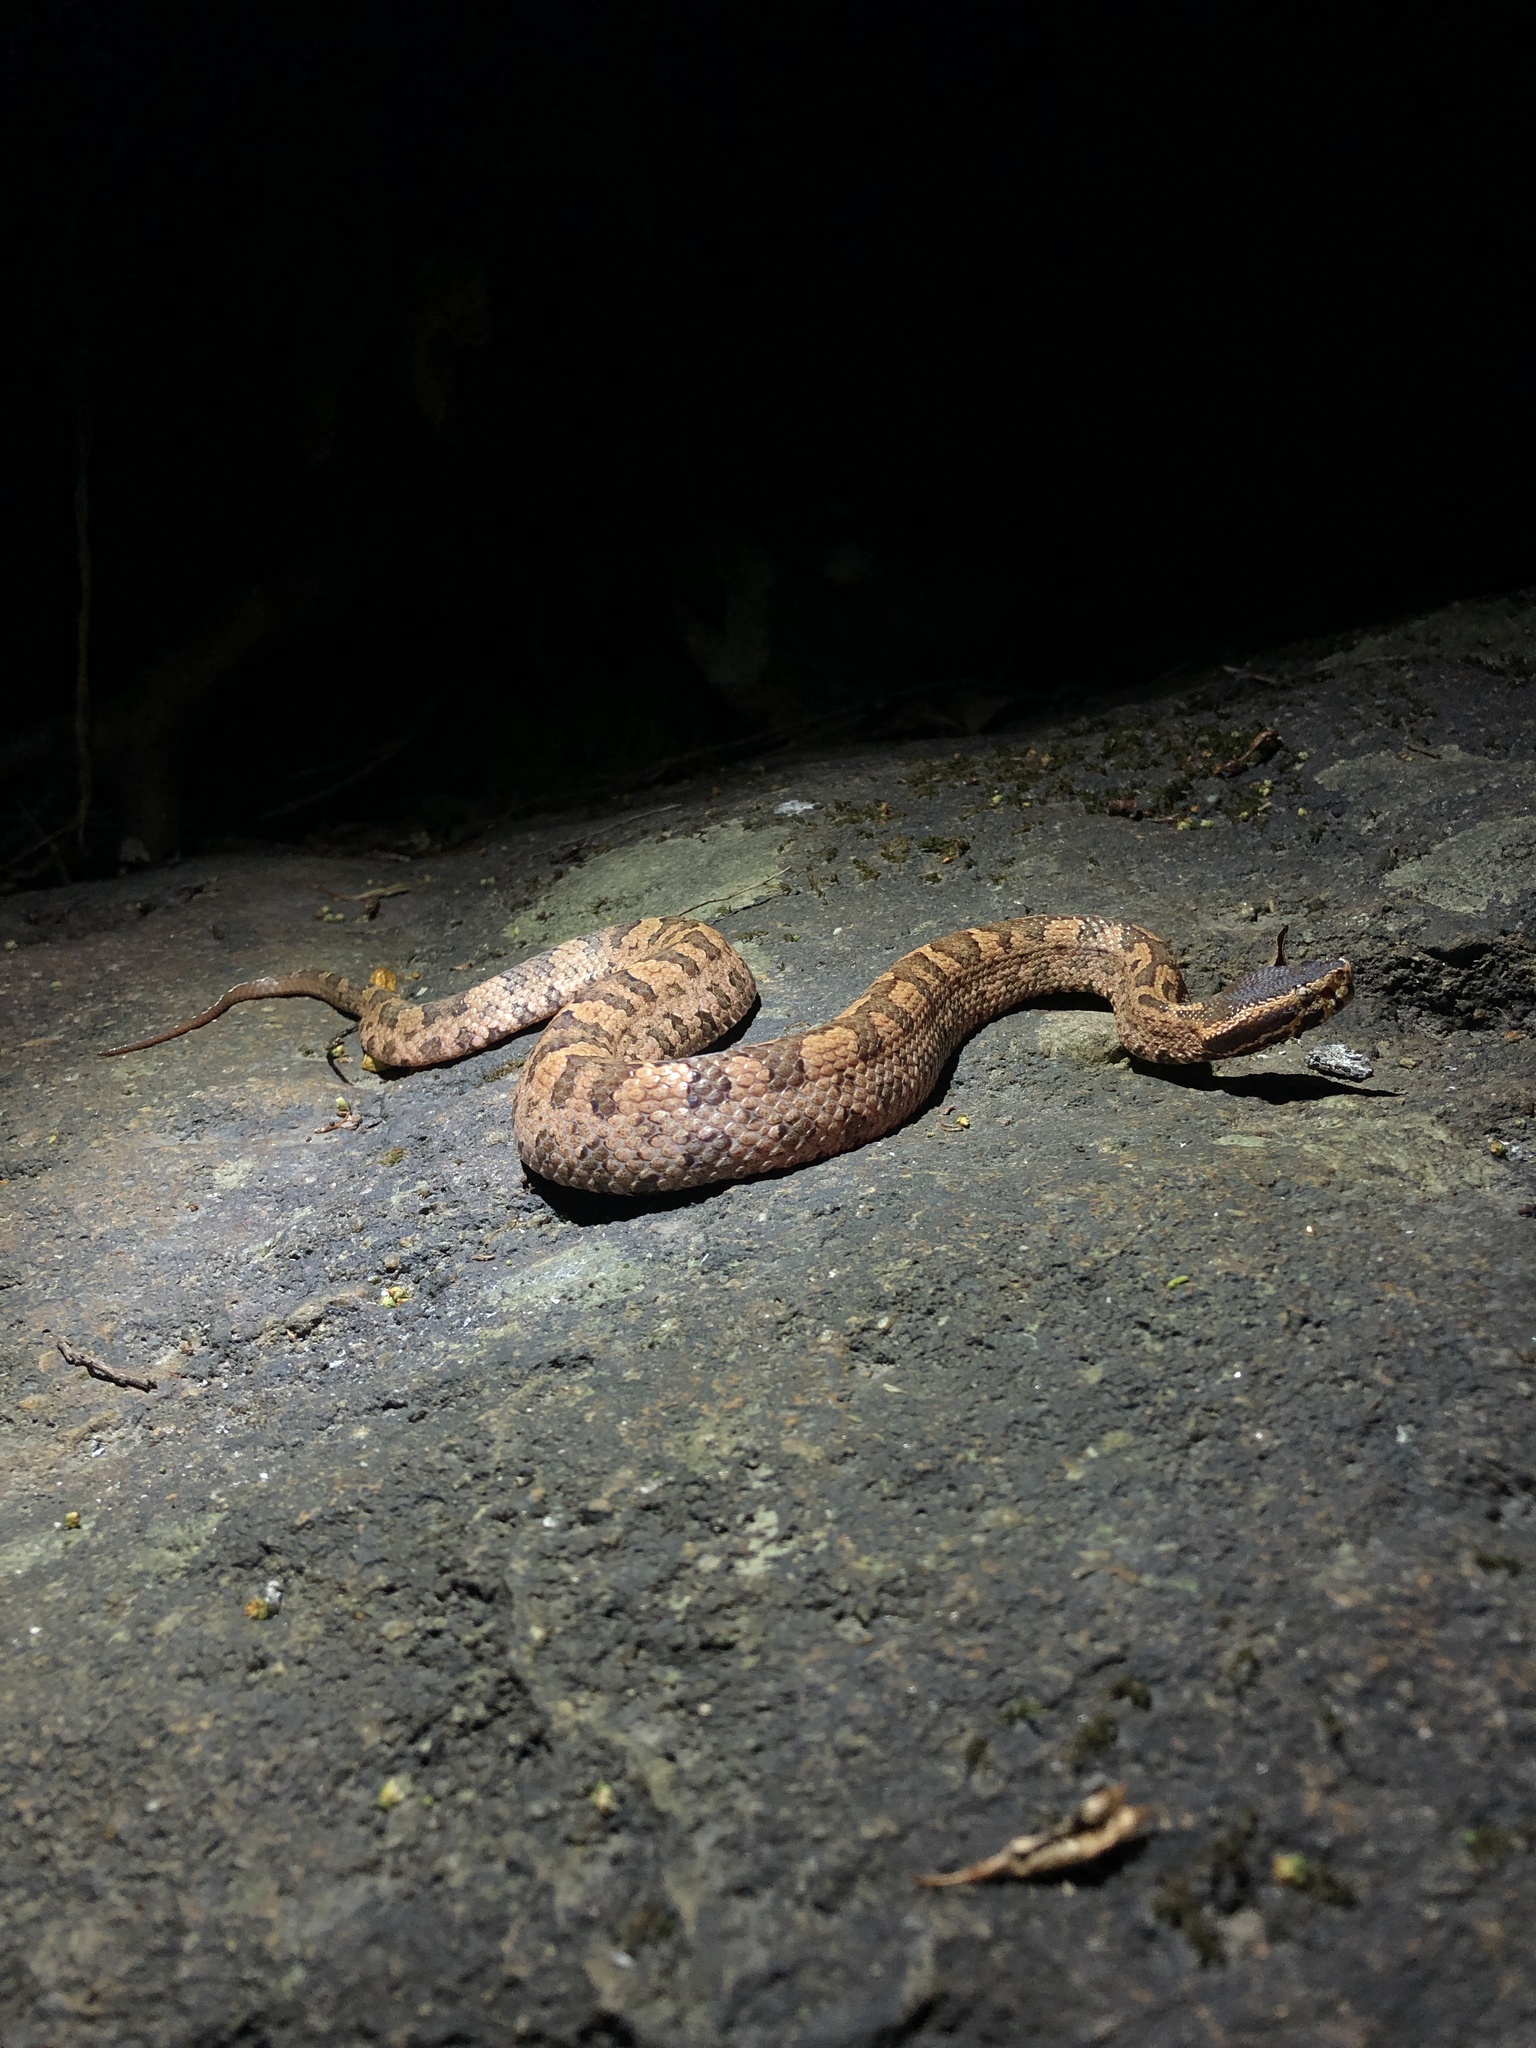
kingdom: Animalia
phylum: Chordata
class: Squamata
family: Viperidae
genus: Ovophis
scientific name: Ovophis tonkinensis
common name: Tonkin pitviper
